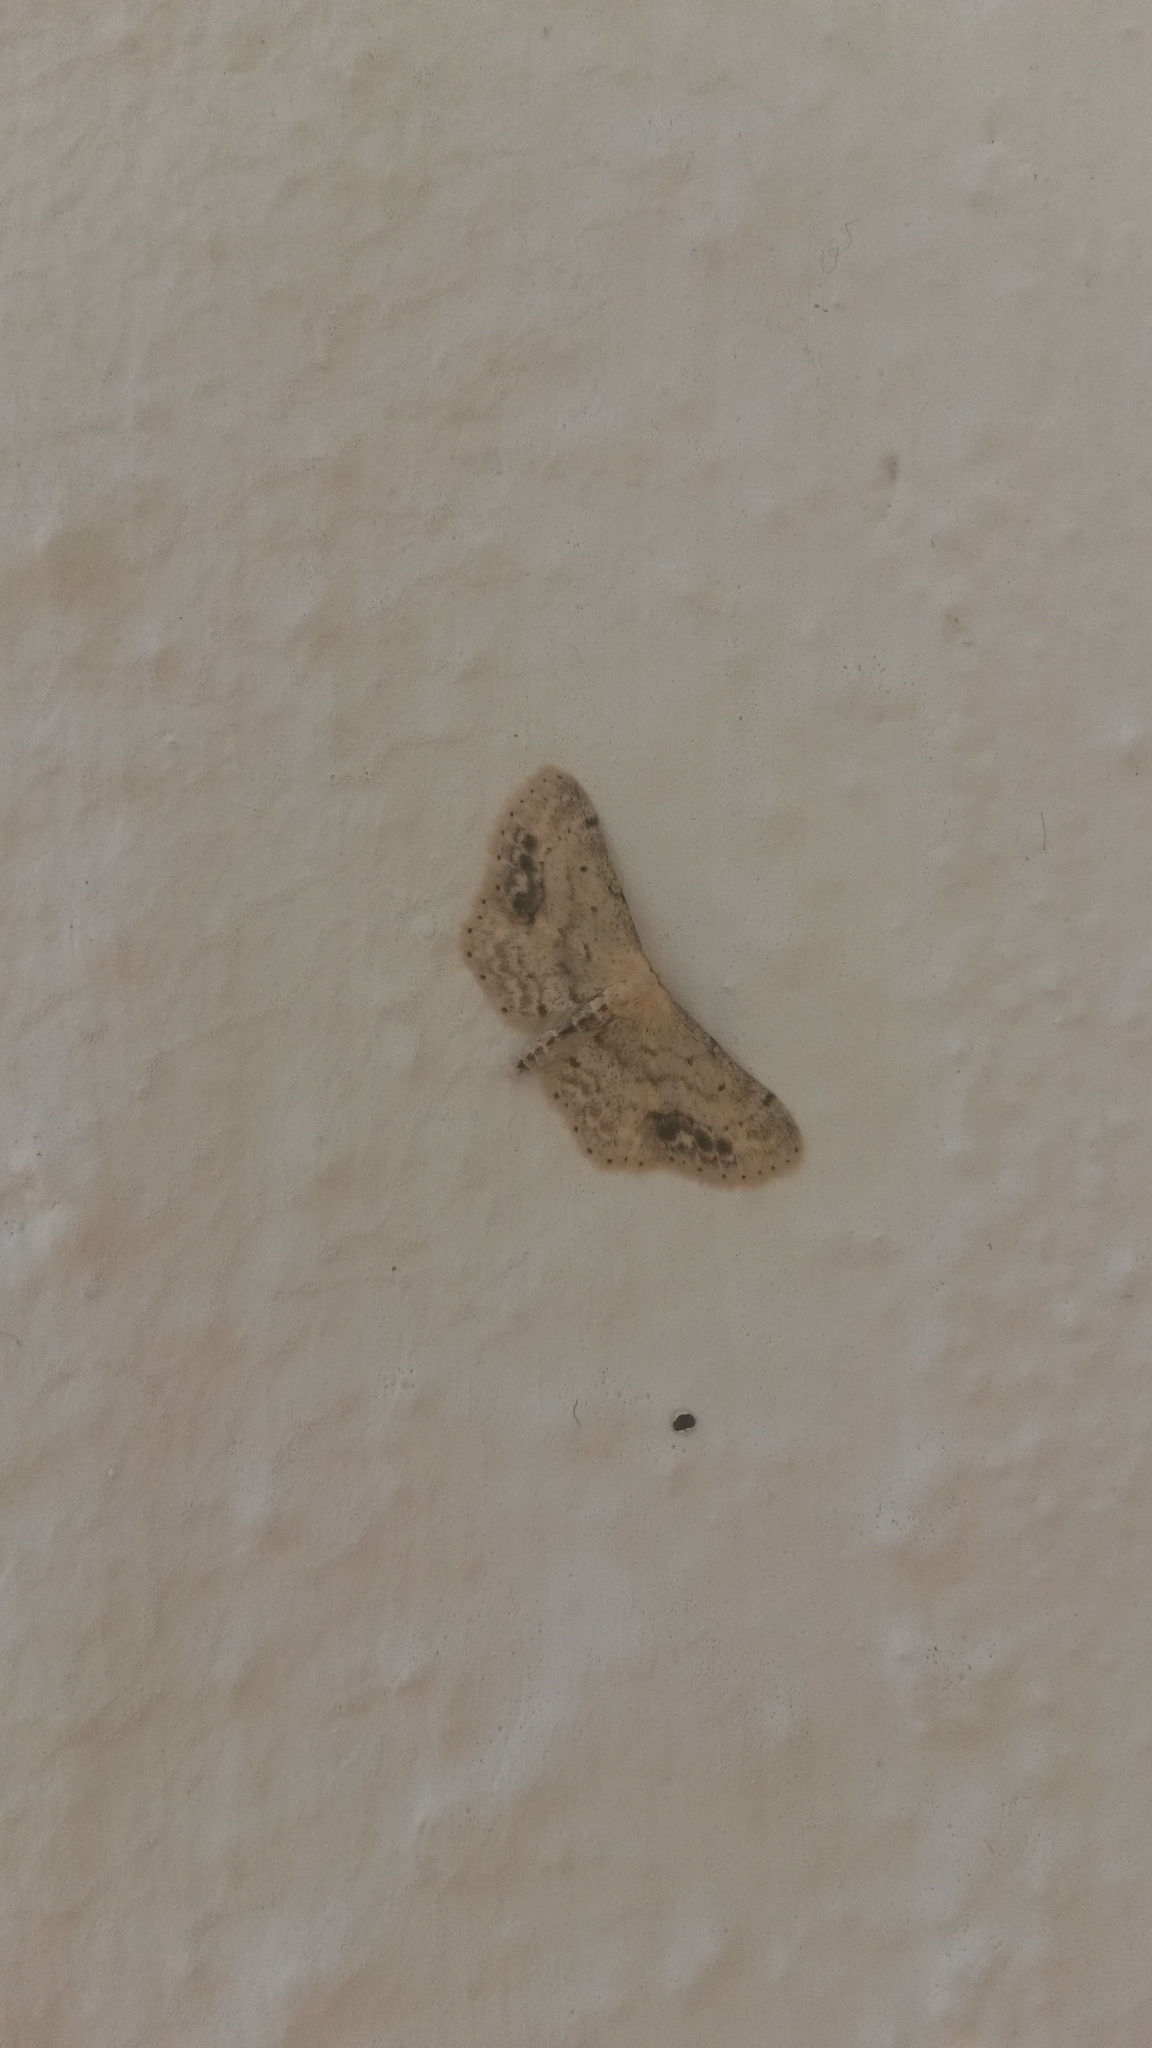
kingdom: Animalia
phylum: Arthropoda
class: Insecta
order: Lepidoptera
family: Geometridae
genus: Idaea
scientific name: Idaea dimidiata
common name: Single-dotted wave
